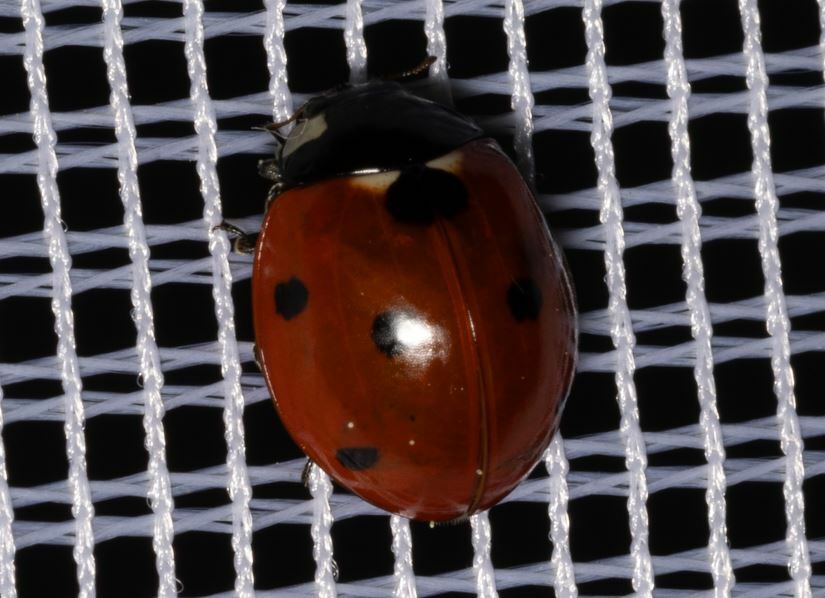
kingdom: Animalia
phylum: Arthropoda
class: Insecta
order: Coleoptera
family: Coccinellidae
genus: Coccinella
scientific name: Coccinella septempunctata
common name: Sevenspotted lady beetle
